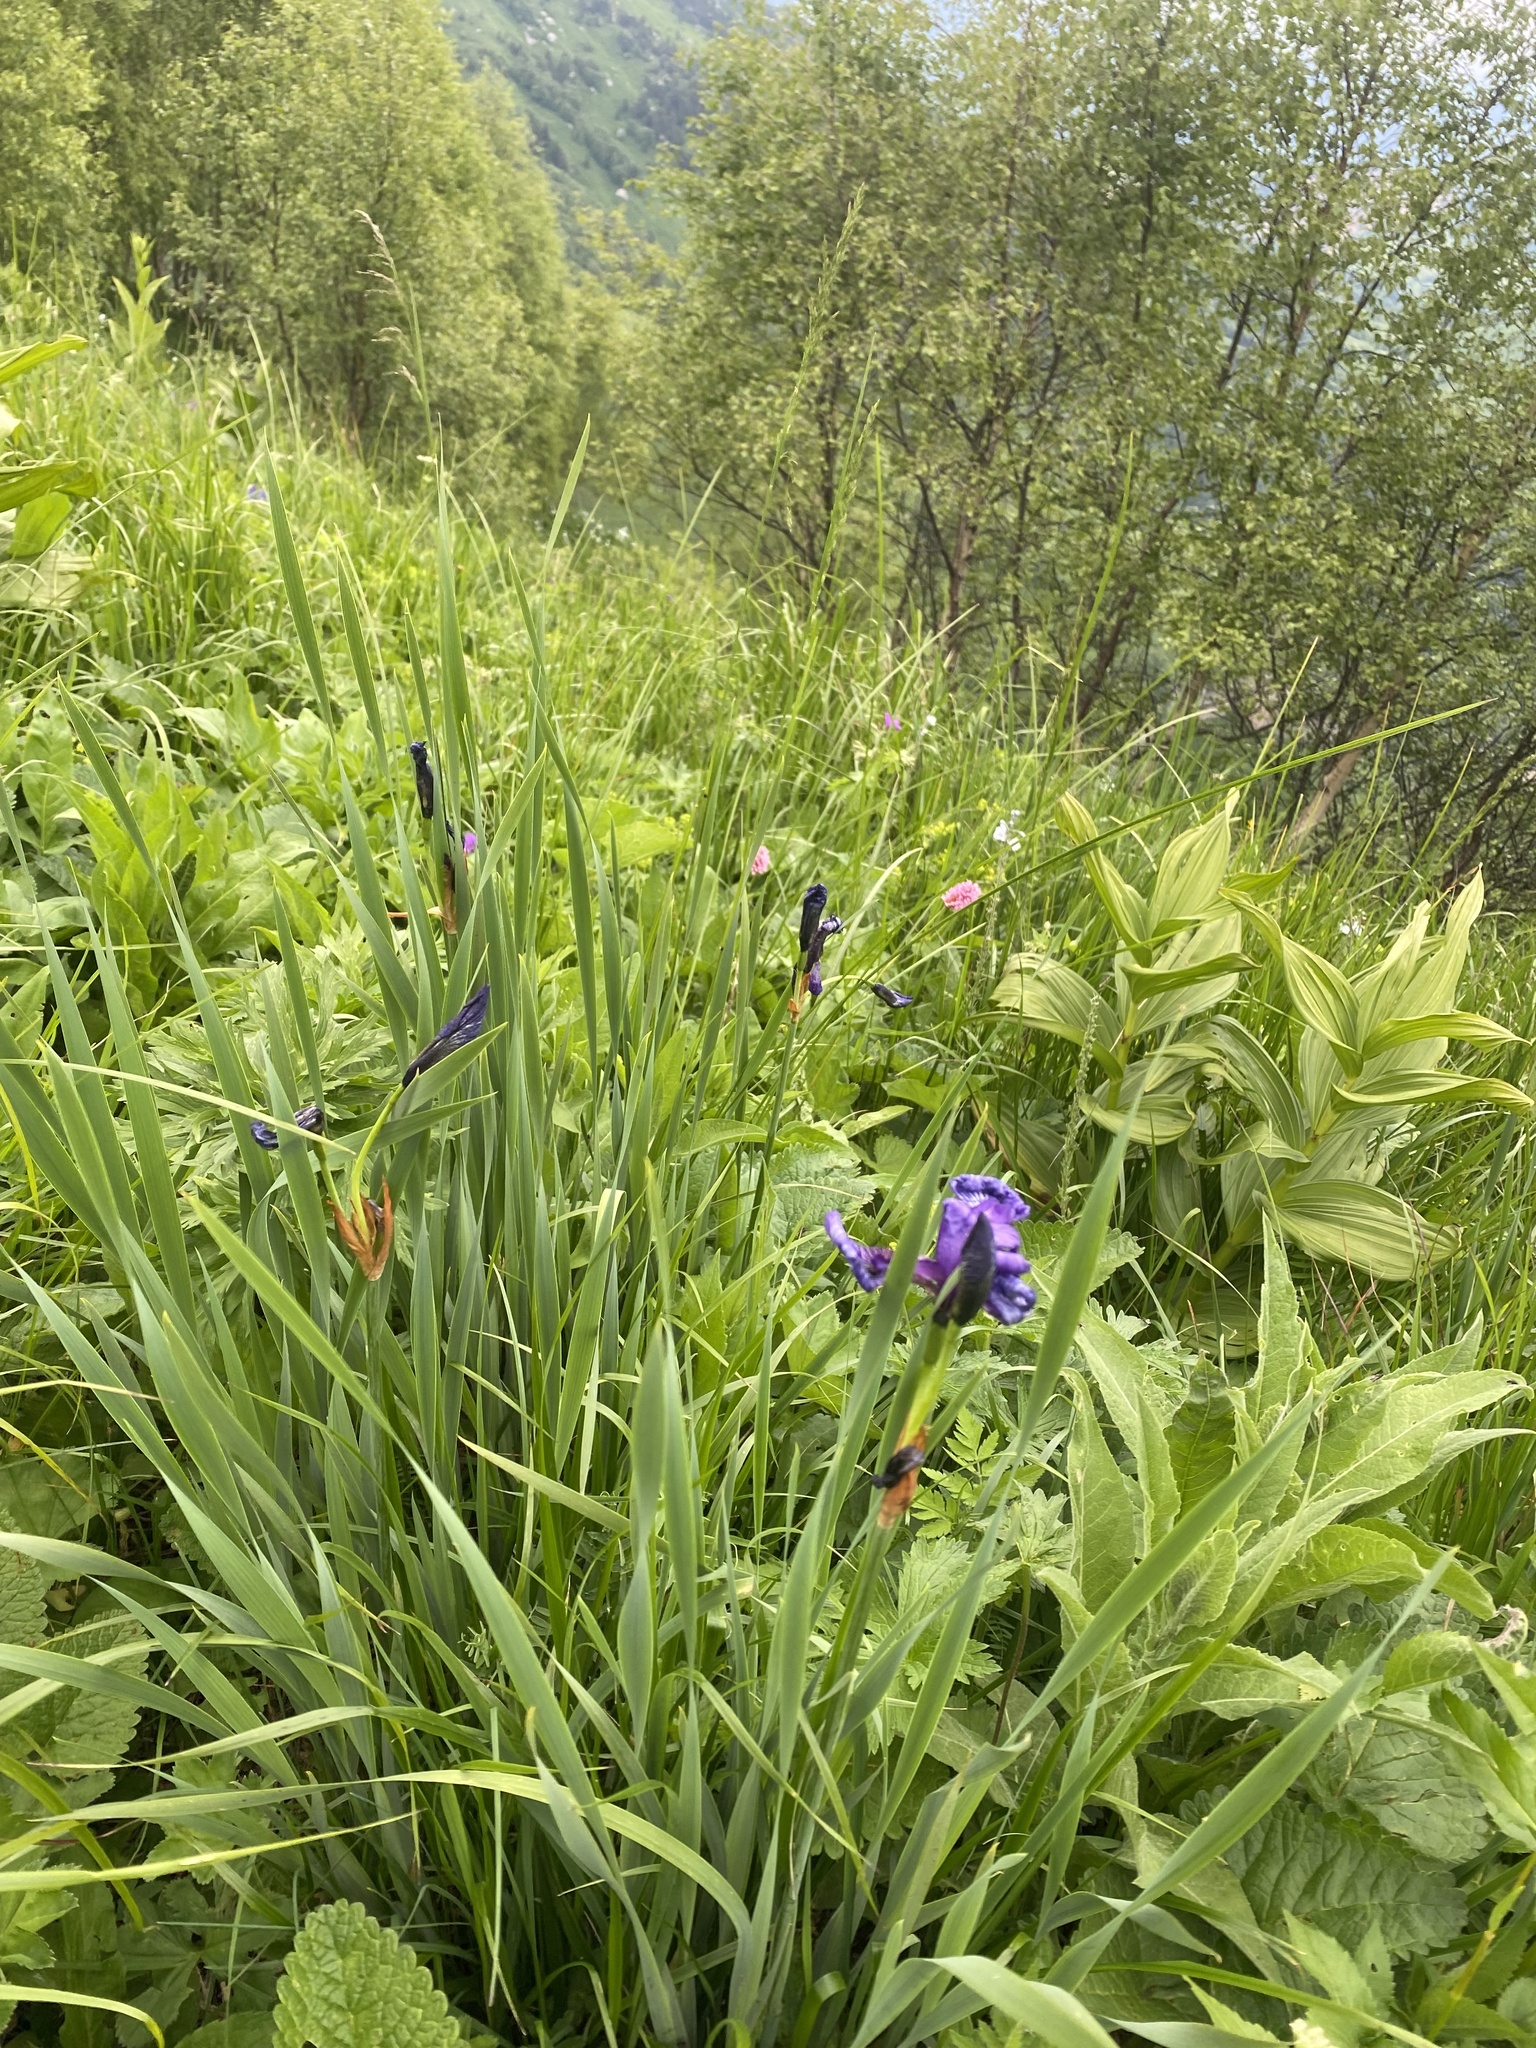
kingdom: Plantae
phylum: Tracheophyta
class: Liliopsida
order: Asparagales
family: Iridaceae
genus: Iris
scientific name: Iris sibirica
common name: Siberian iris
